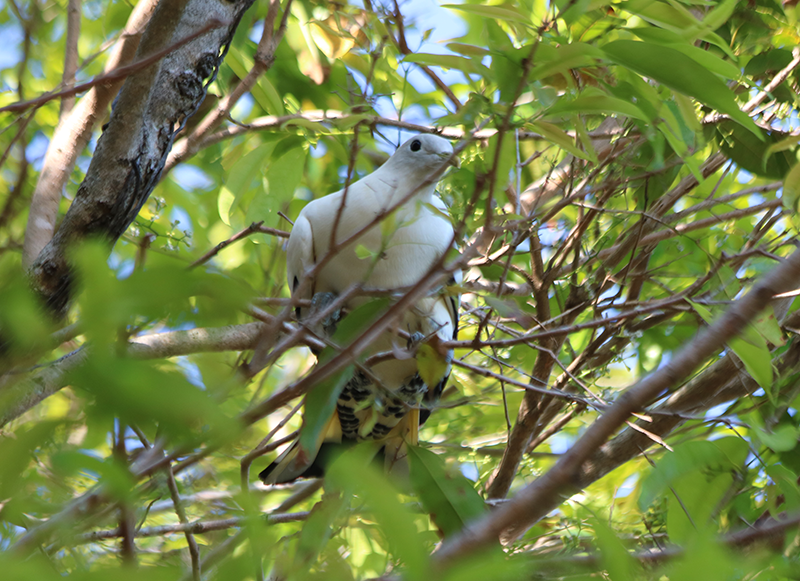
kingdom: Animalia
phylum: Chordata
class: Aves
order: Columbiformes
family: Columbidae
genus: Ducula
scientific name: Ducula spilorrhoa
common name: Torresian imperial pigeon
